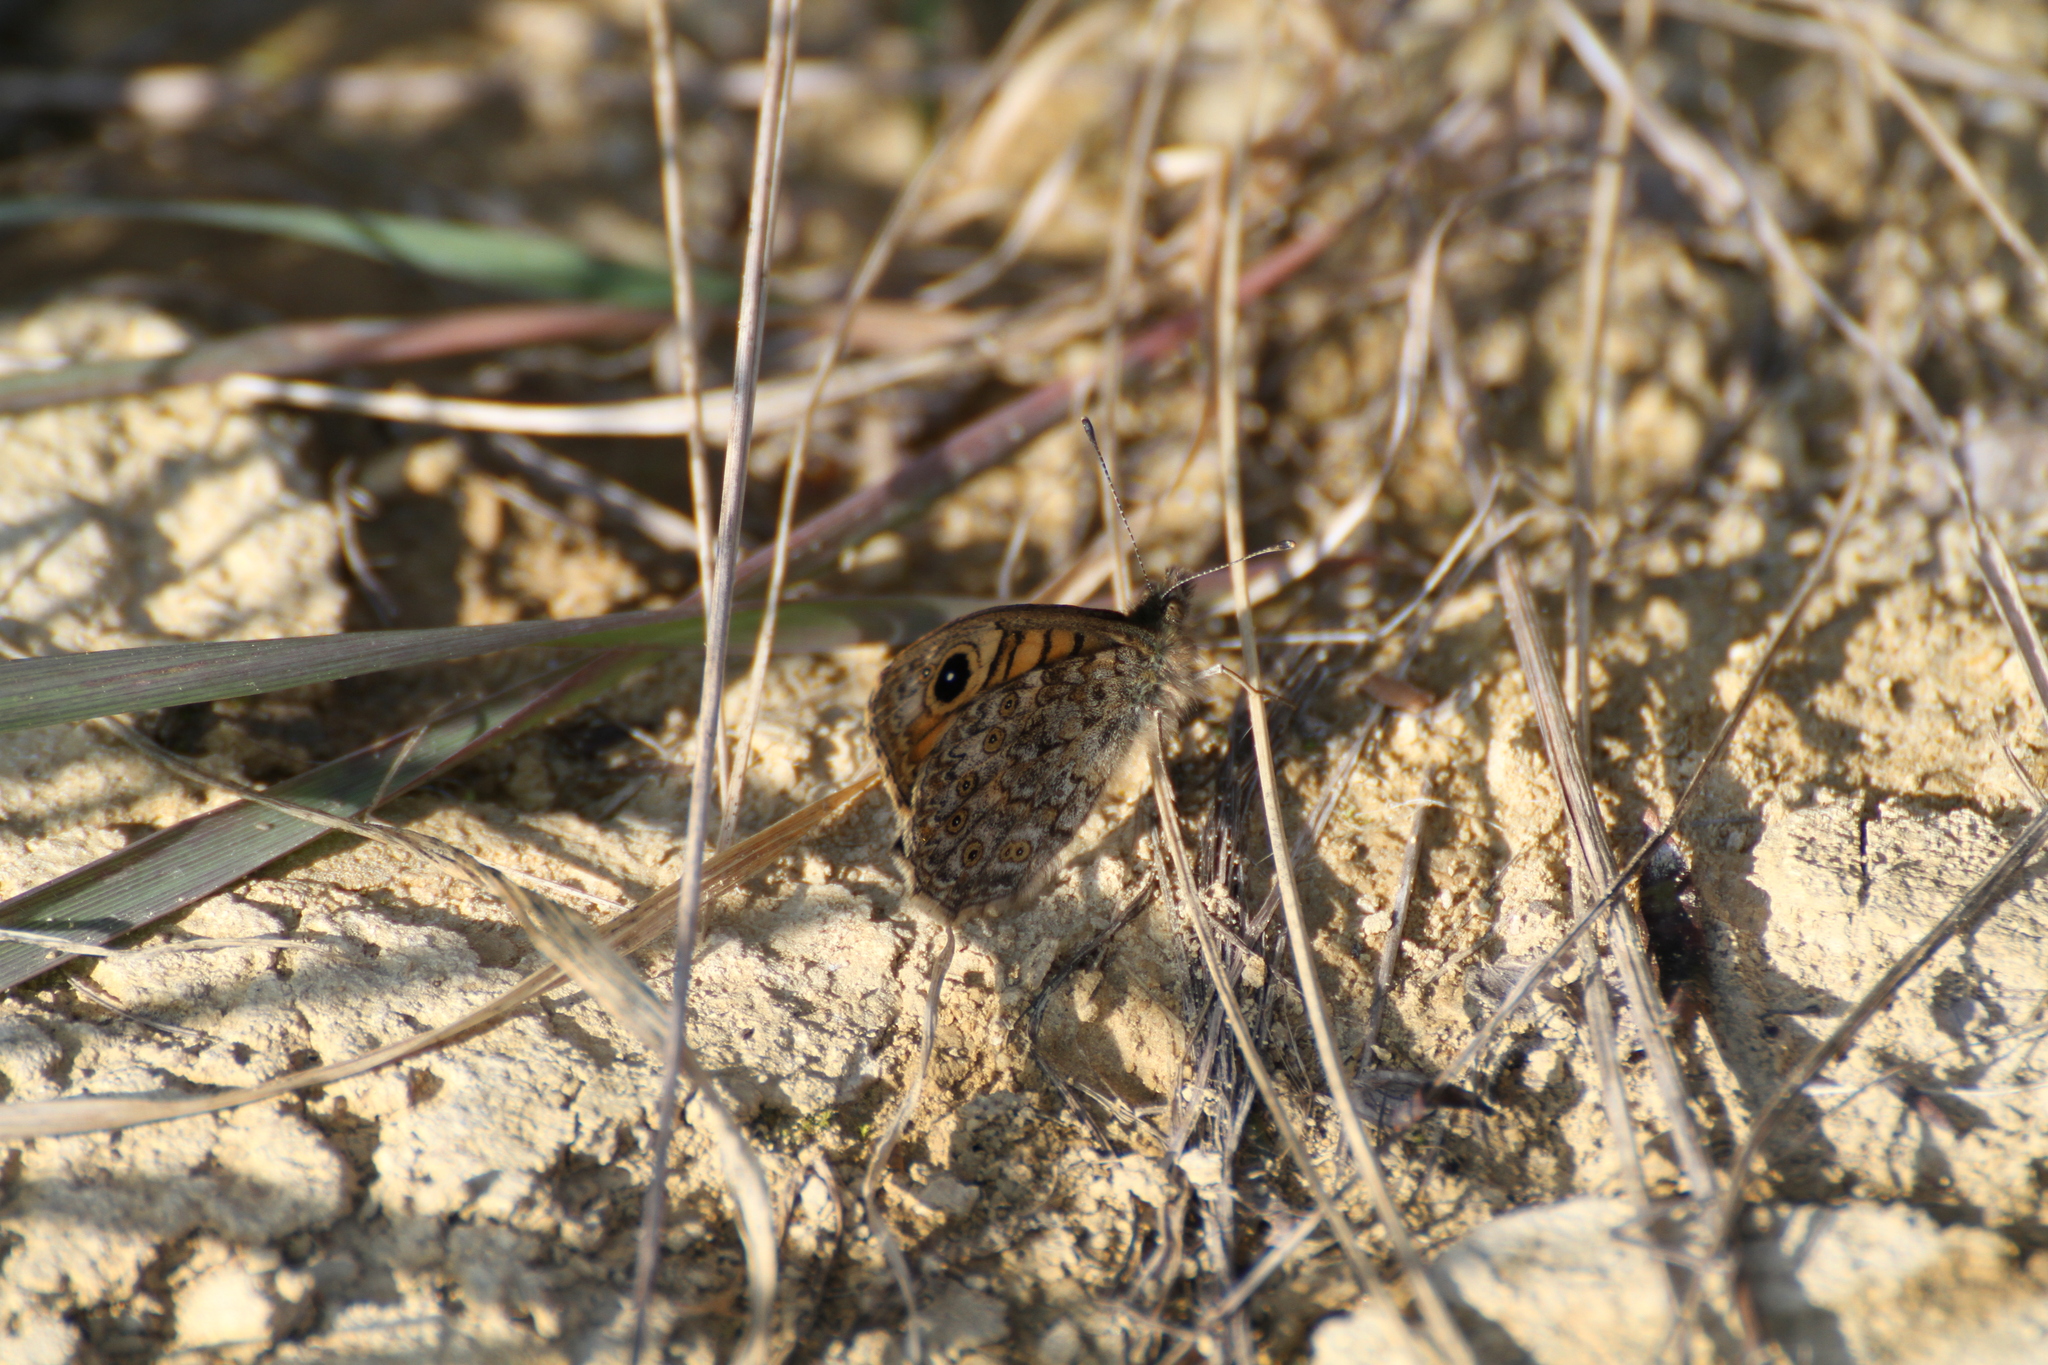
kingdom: Animalia
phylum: Arthropoda
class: Insecta
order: Lepidoptera
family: Nymphalidae
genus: Pararge
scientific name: Pararge Lasiommata megera
